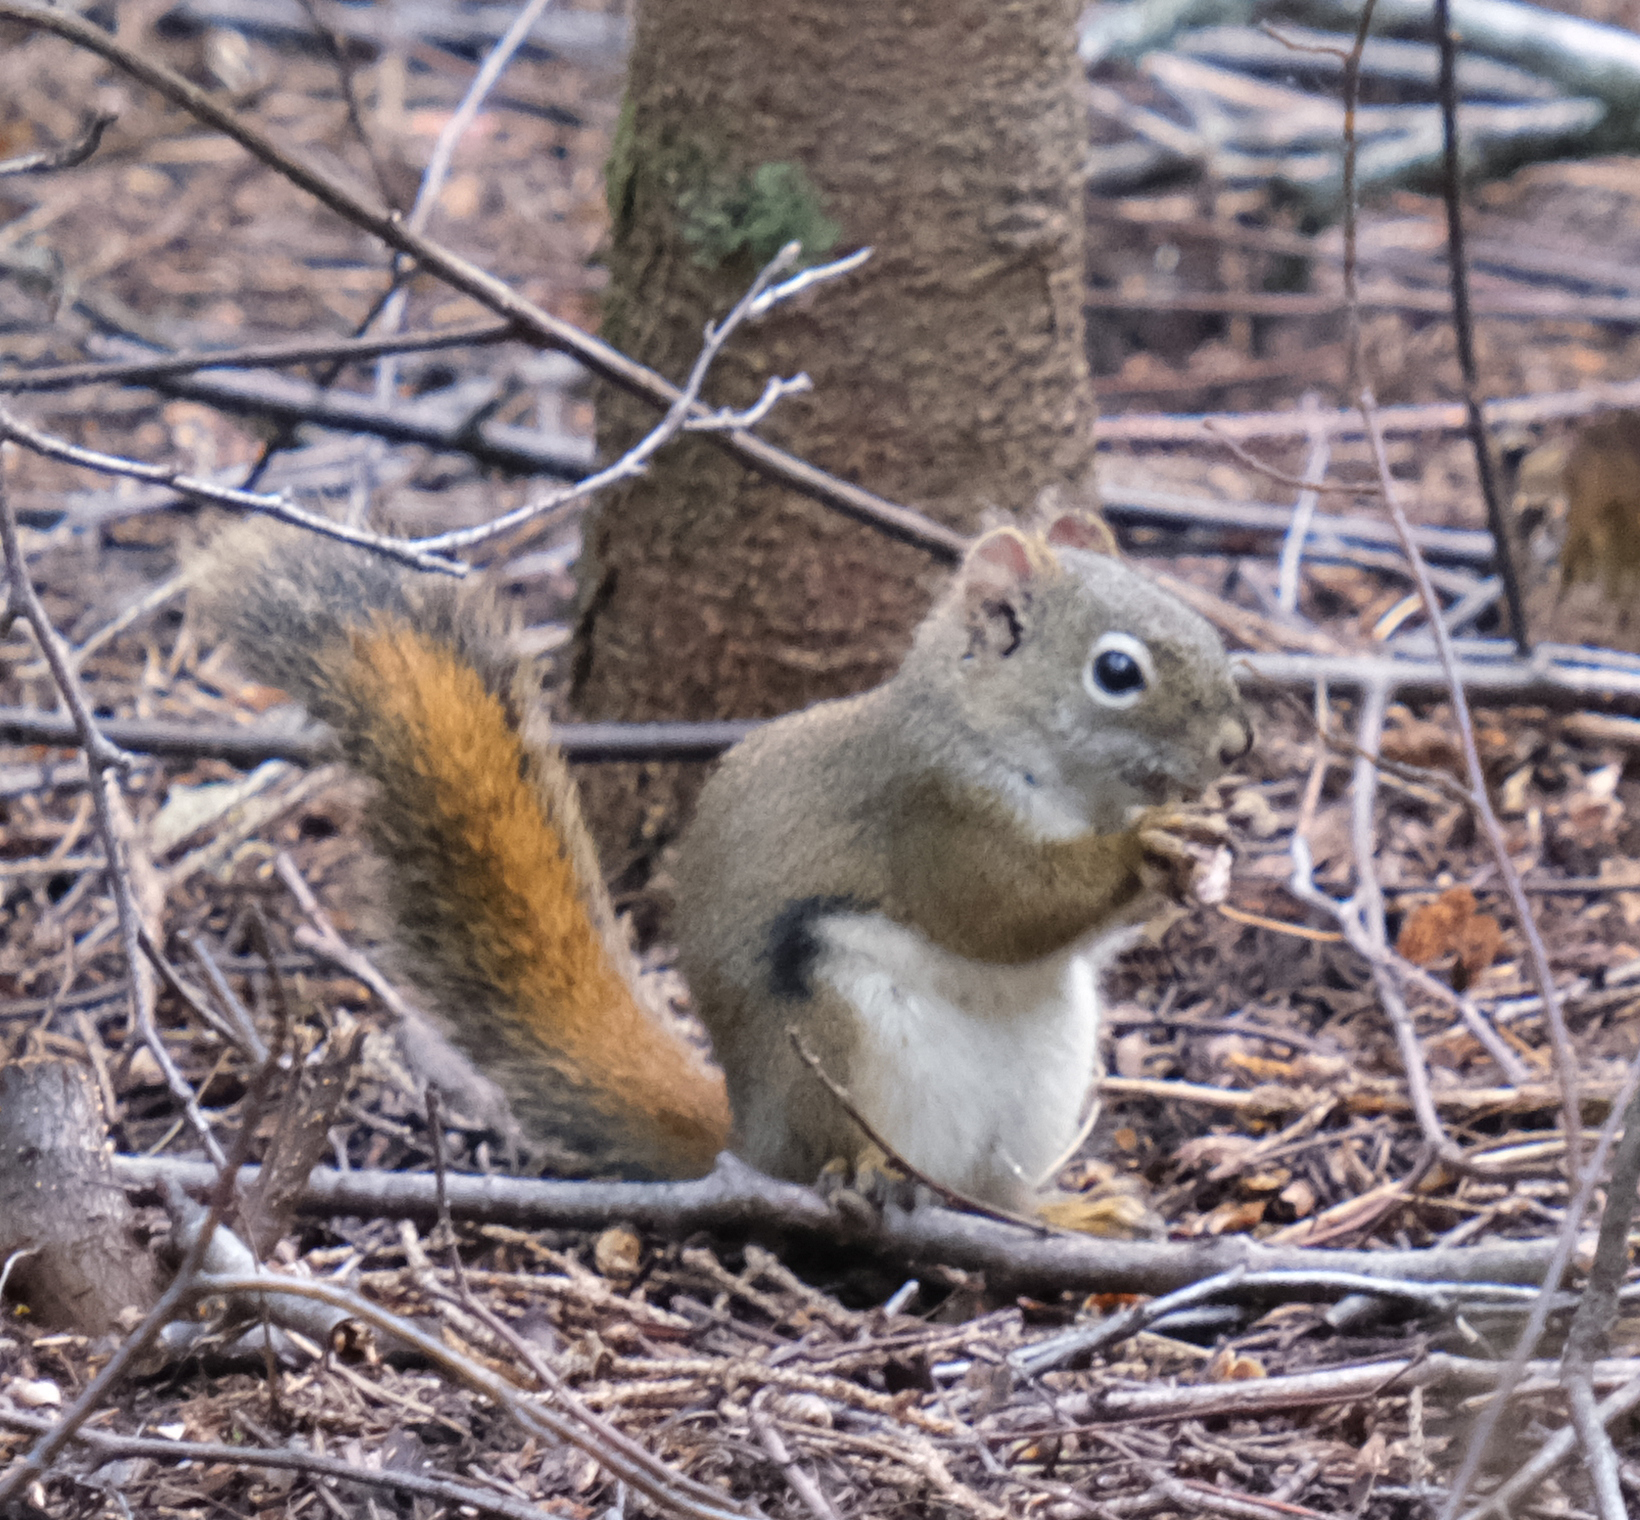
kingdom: Animalia
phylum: Chordata
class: Mammalia
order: Rodentia
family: Sciuridae
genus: Tamiasciurus
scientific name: Tamiasciurus hudsonicus
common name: Red squirrel
